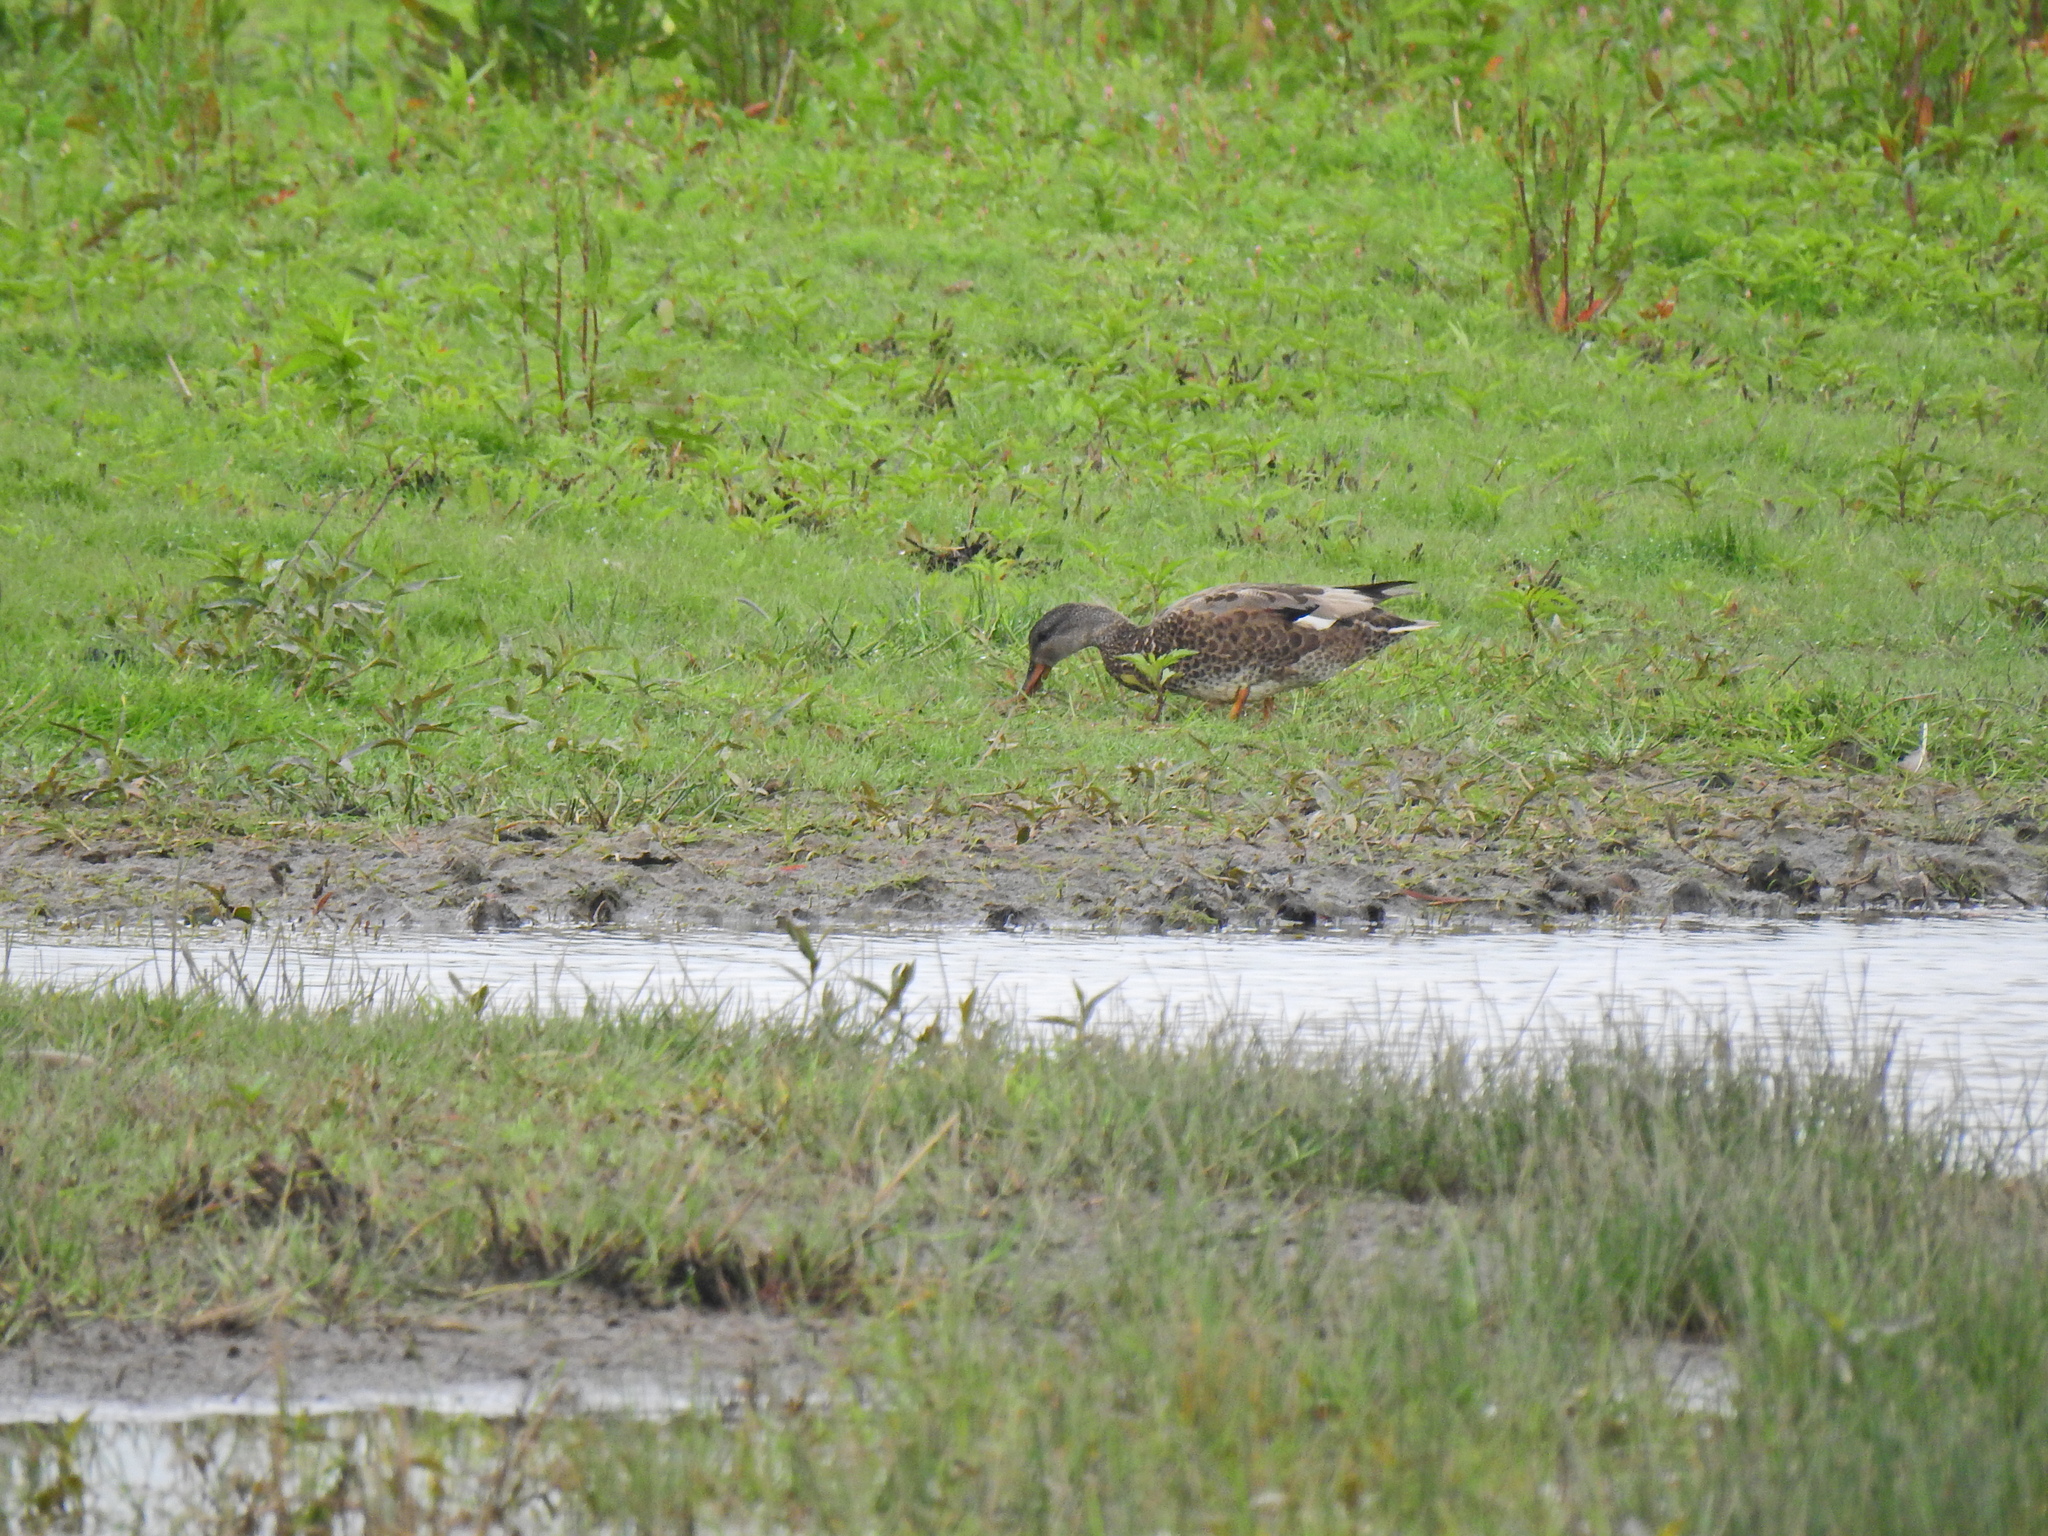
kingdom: Animalia
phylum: Chordata
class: Aves
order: Anseriformes
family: Anatidae
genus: Mareca
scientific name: Mareca strepera
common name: Gadwall
